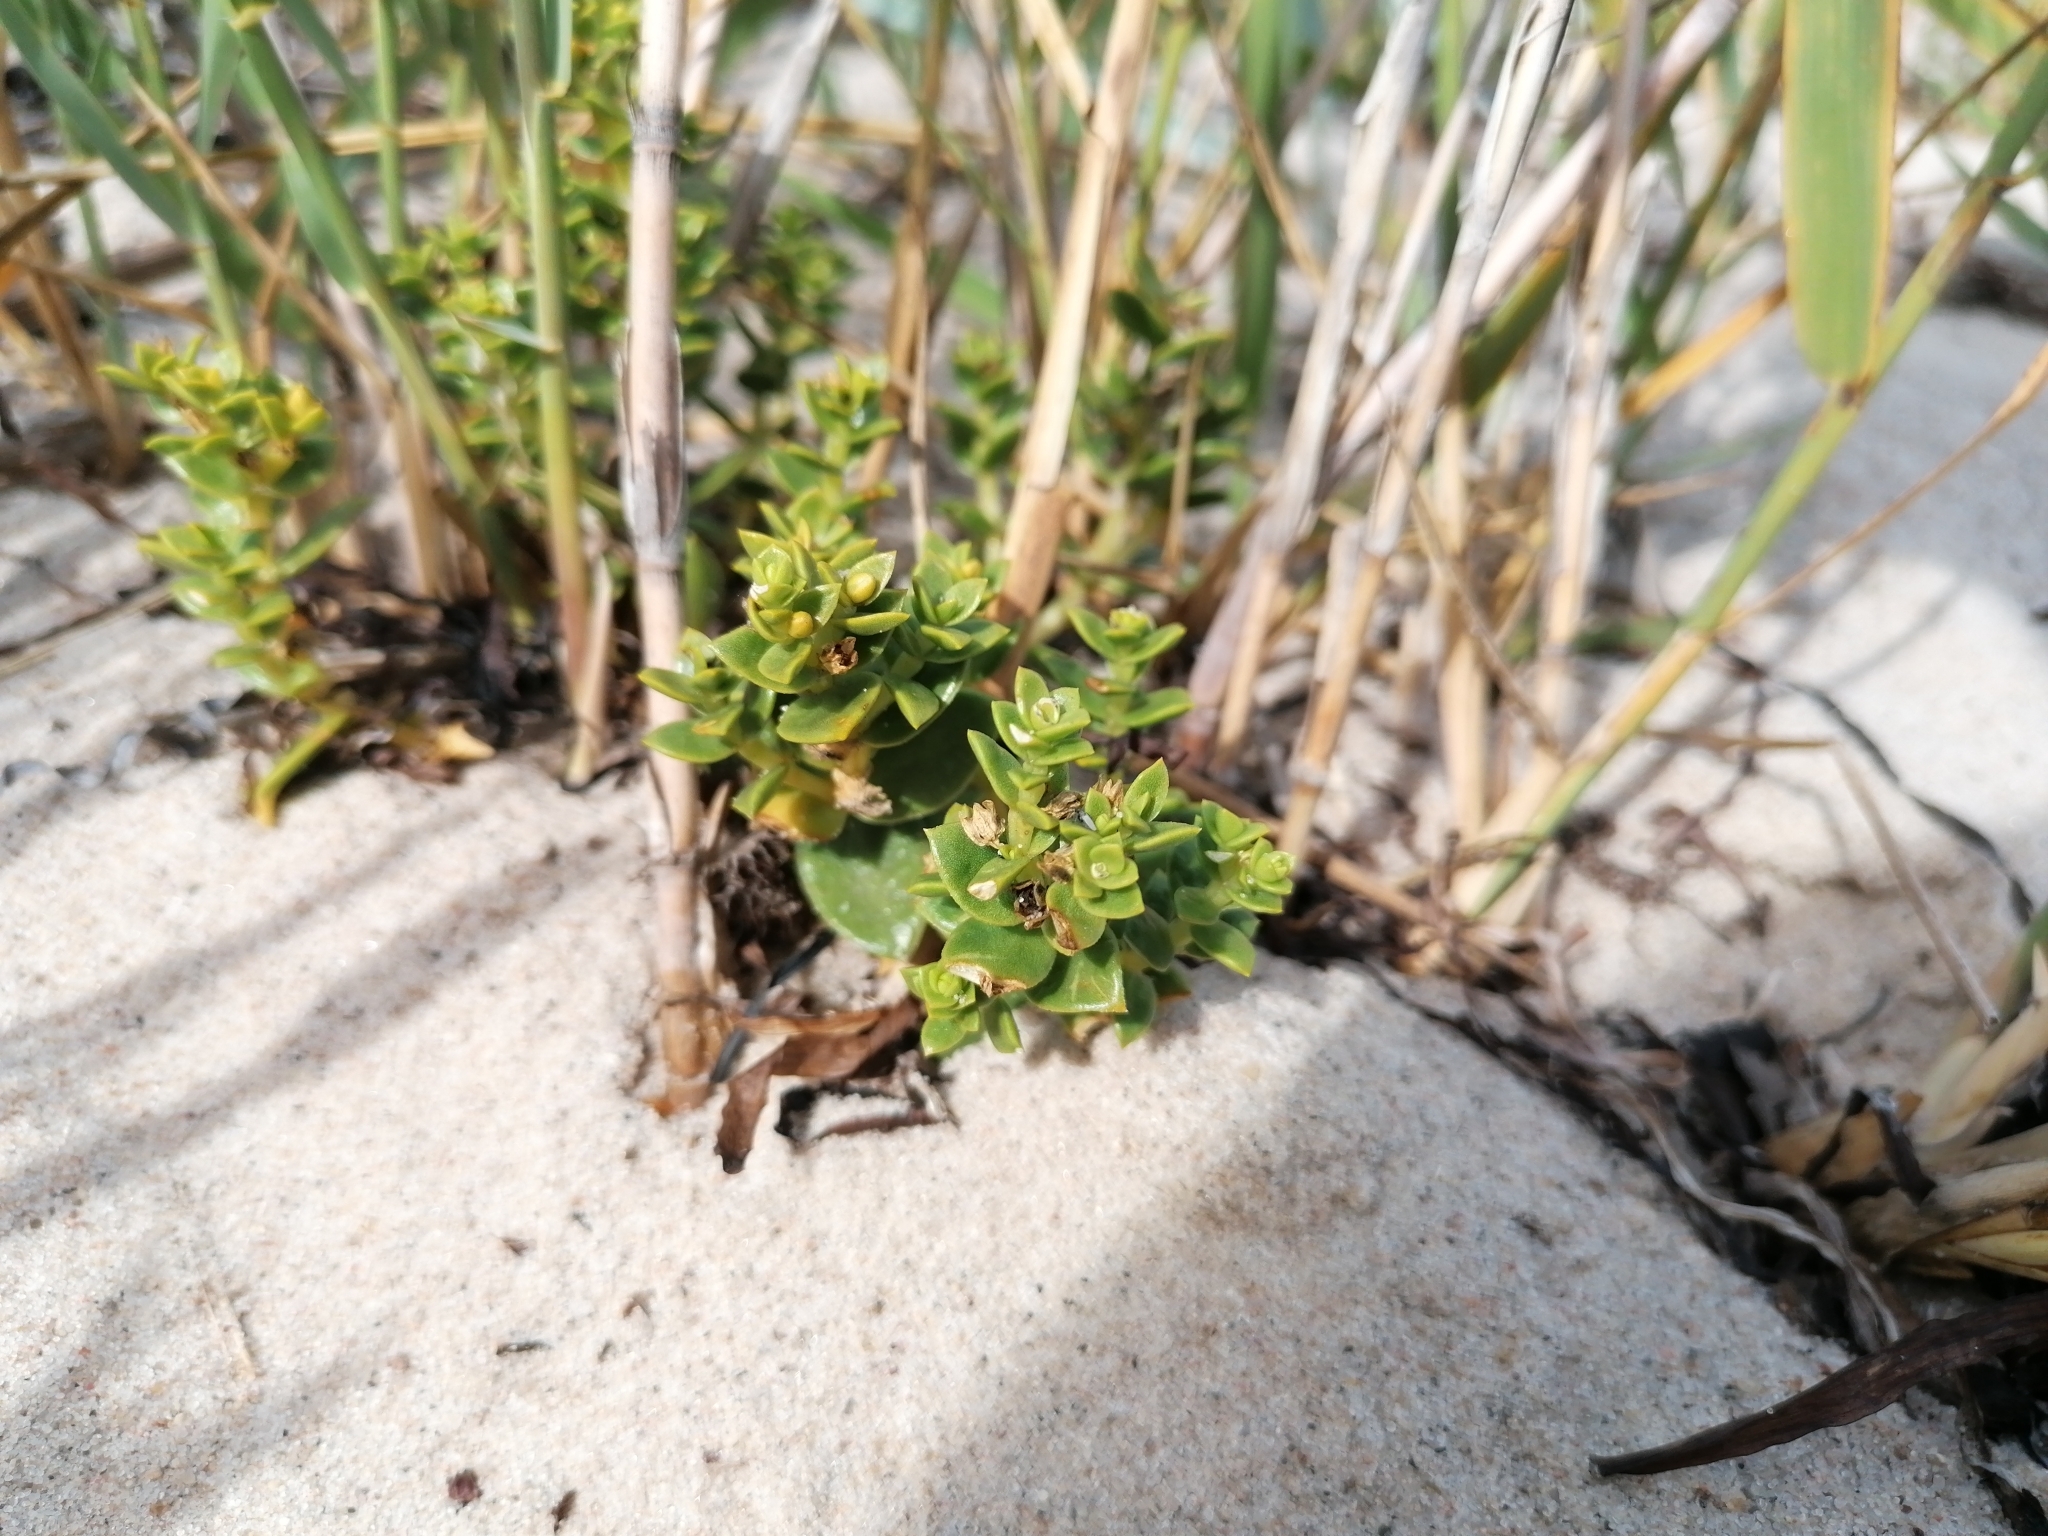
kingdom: Plantae
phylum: Tracheophyta
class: Magnoliopsida
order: Caryophyllales
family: Caryophyllaceae
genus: Honckenya
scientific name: Honckenya peploides
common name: Sea sandwort
